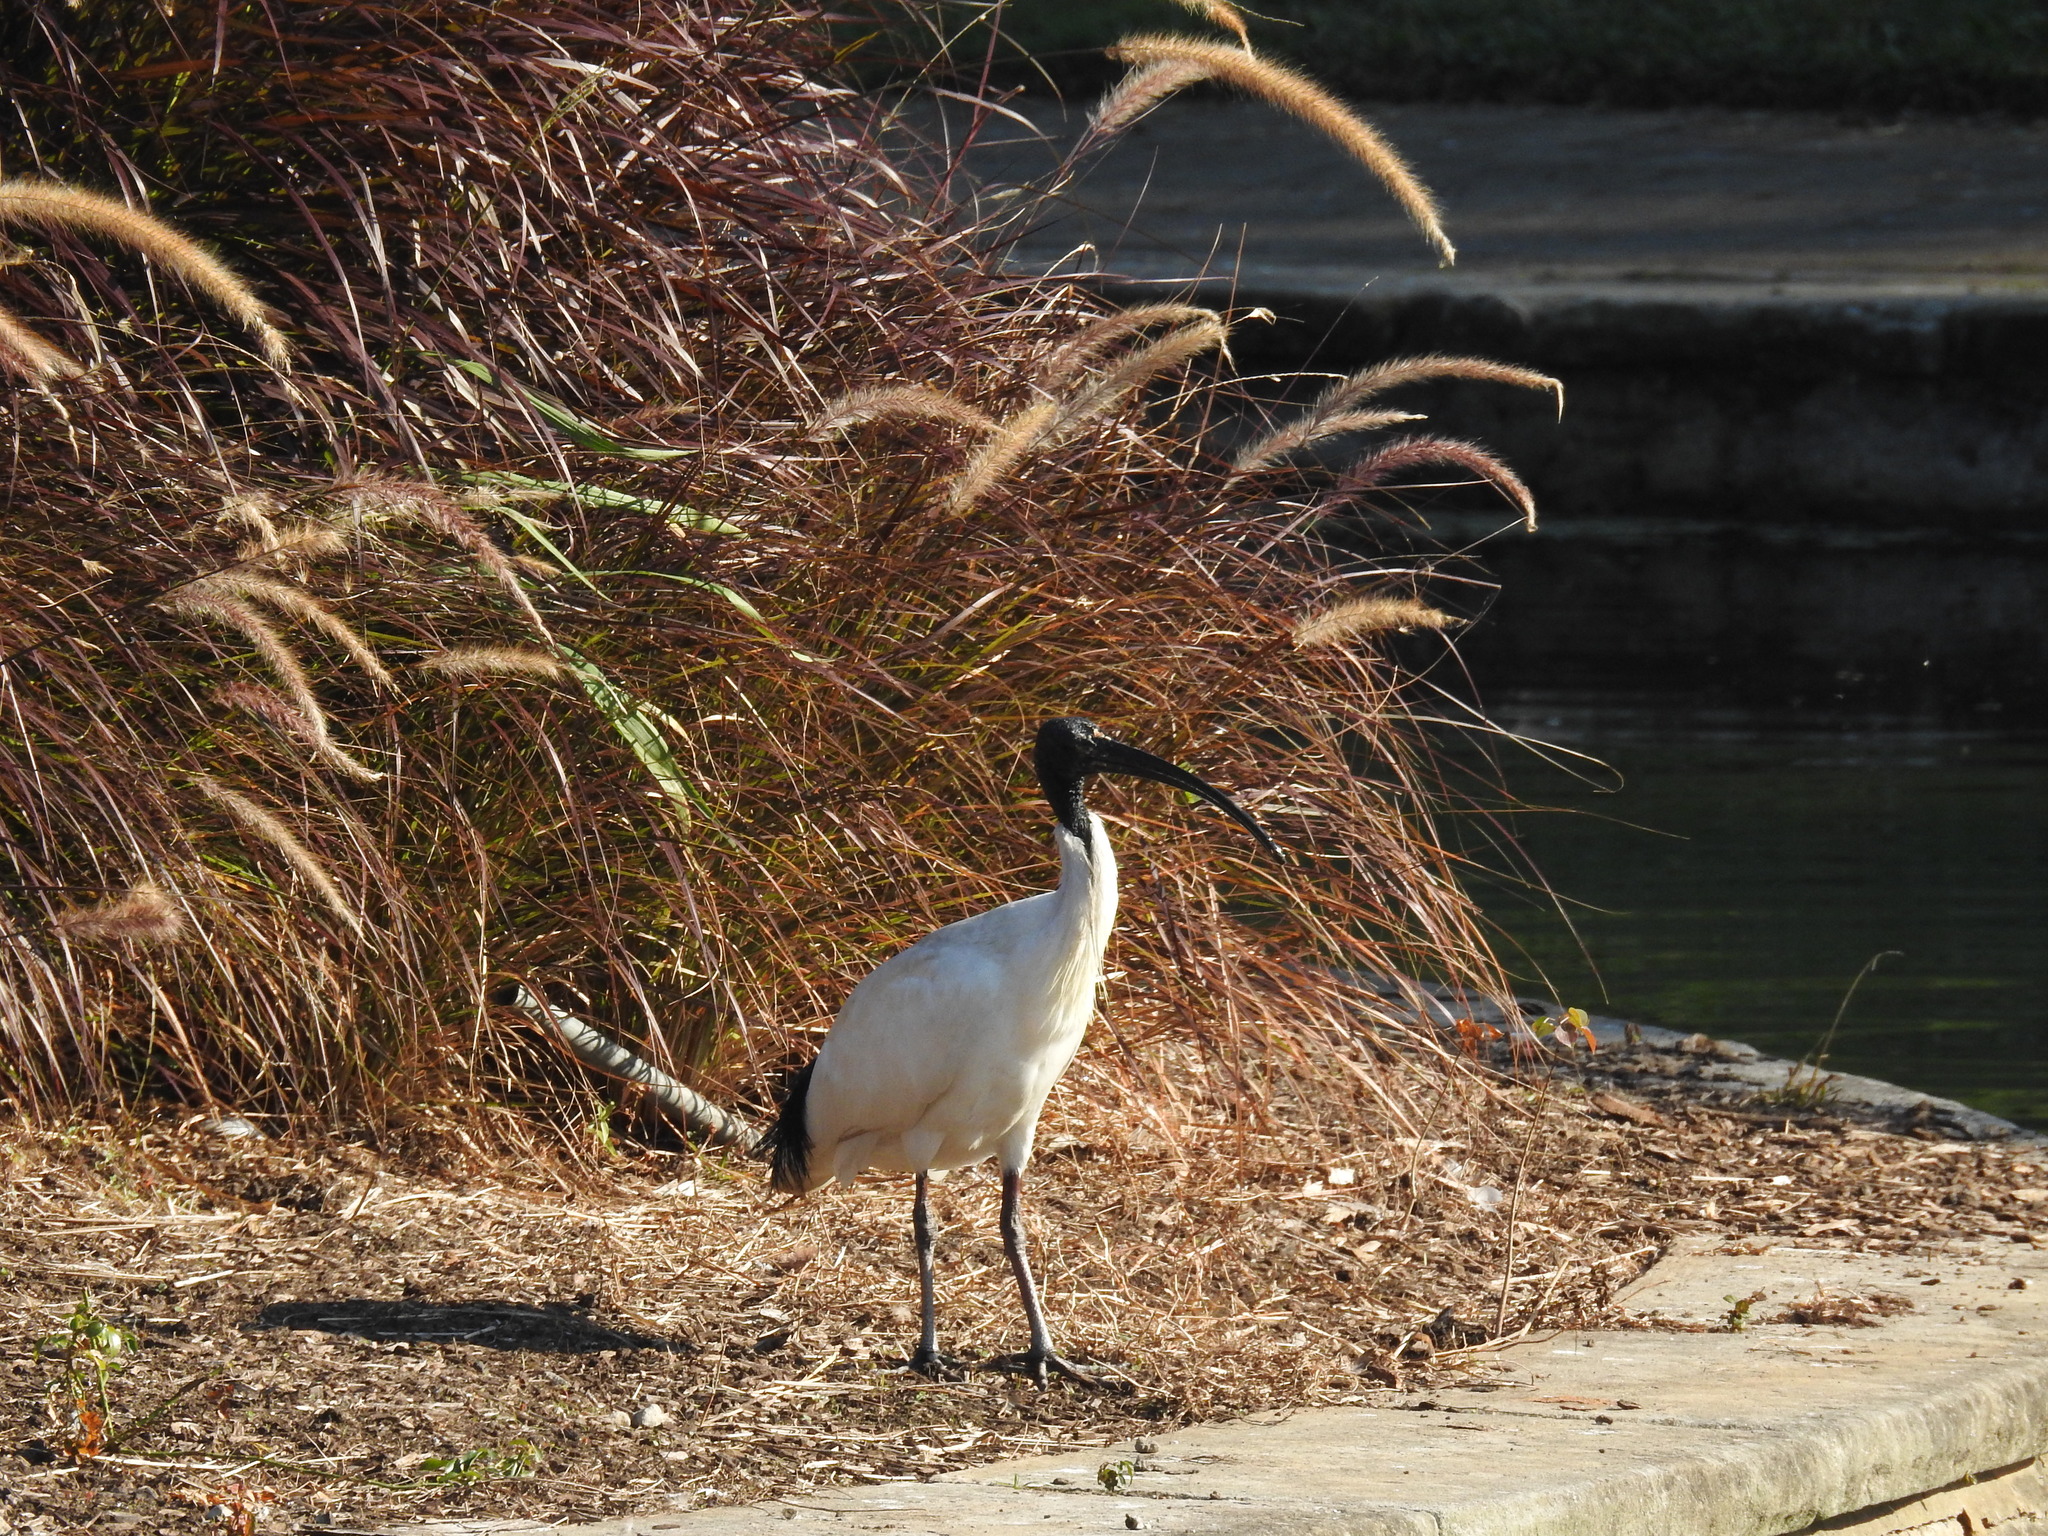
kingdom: Animalia
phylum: Chordata
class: Aves
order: Pelecaniformes
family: Threskiornithidae
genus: Threskiornis
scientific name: Threskiornis molucca
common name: Australian white ibis
